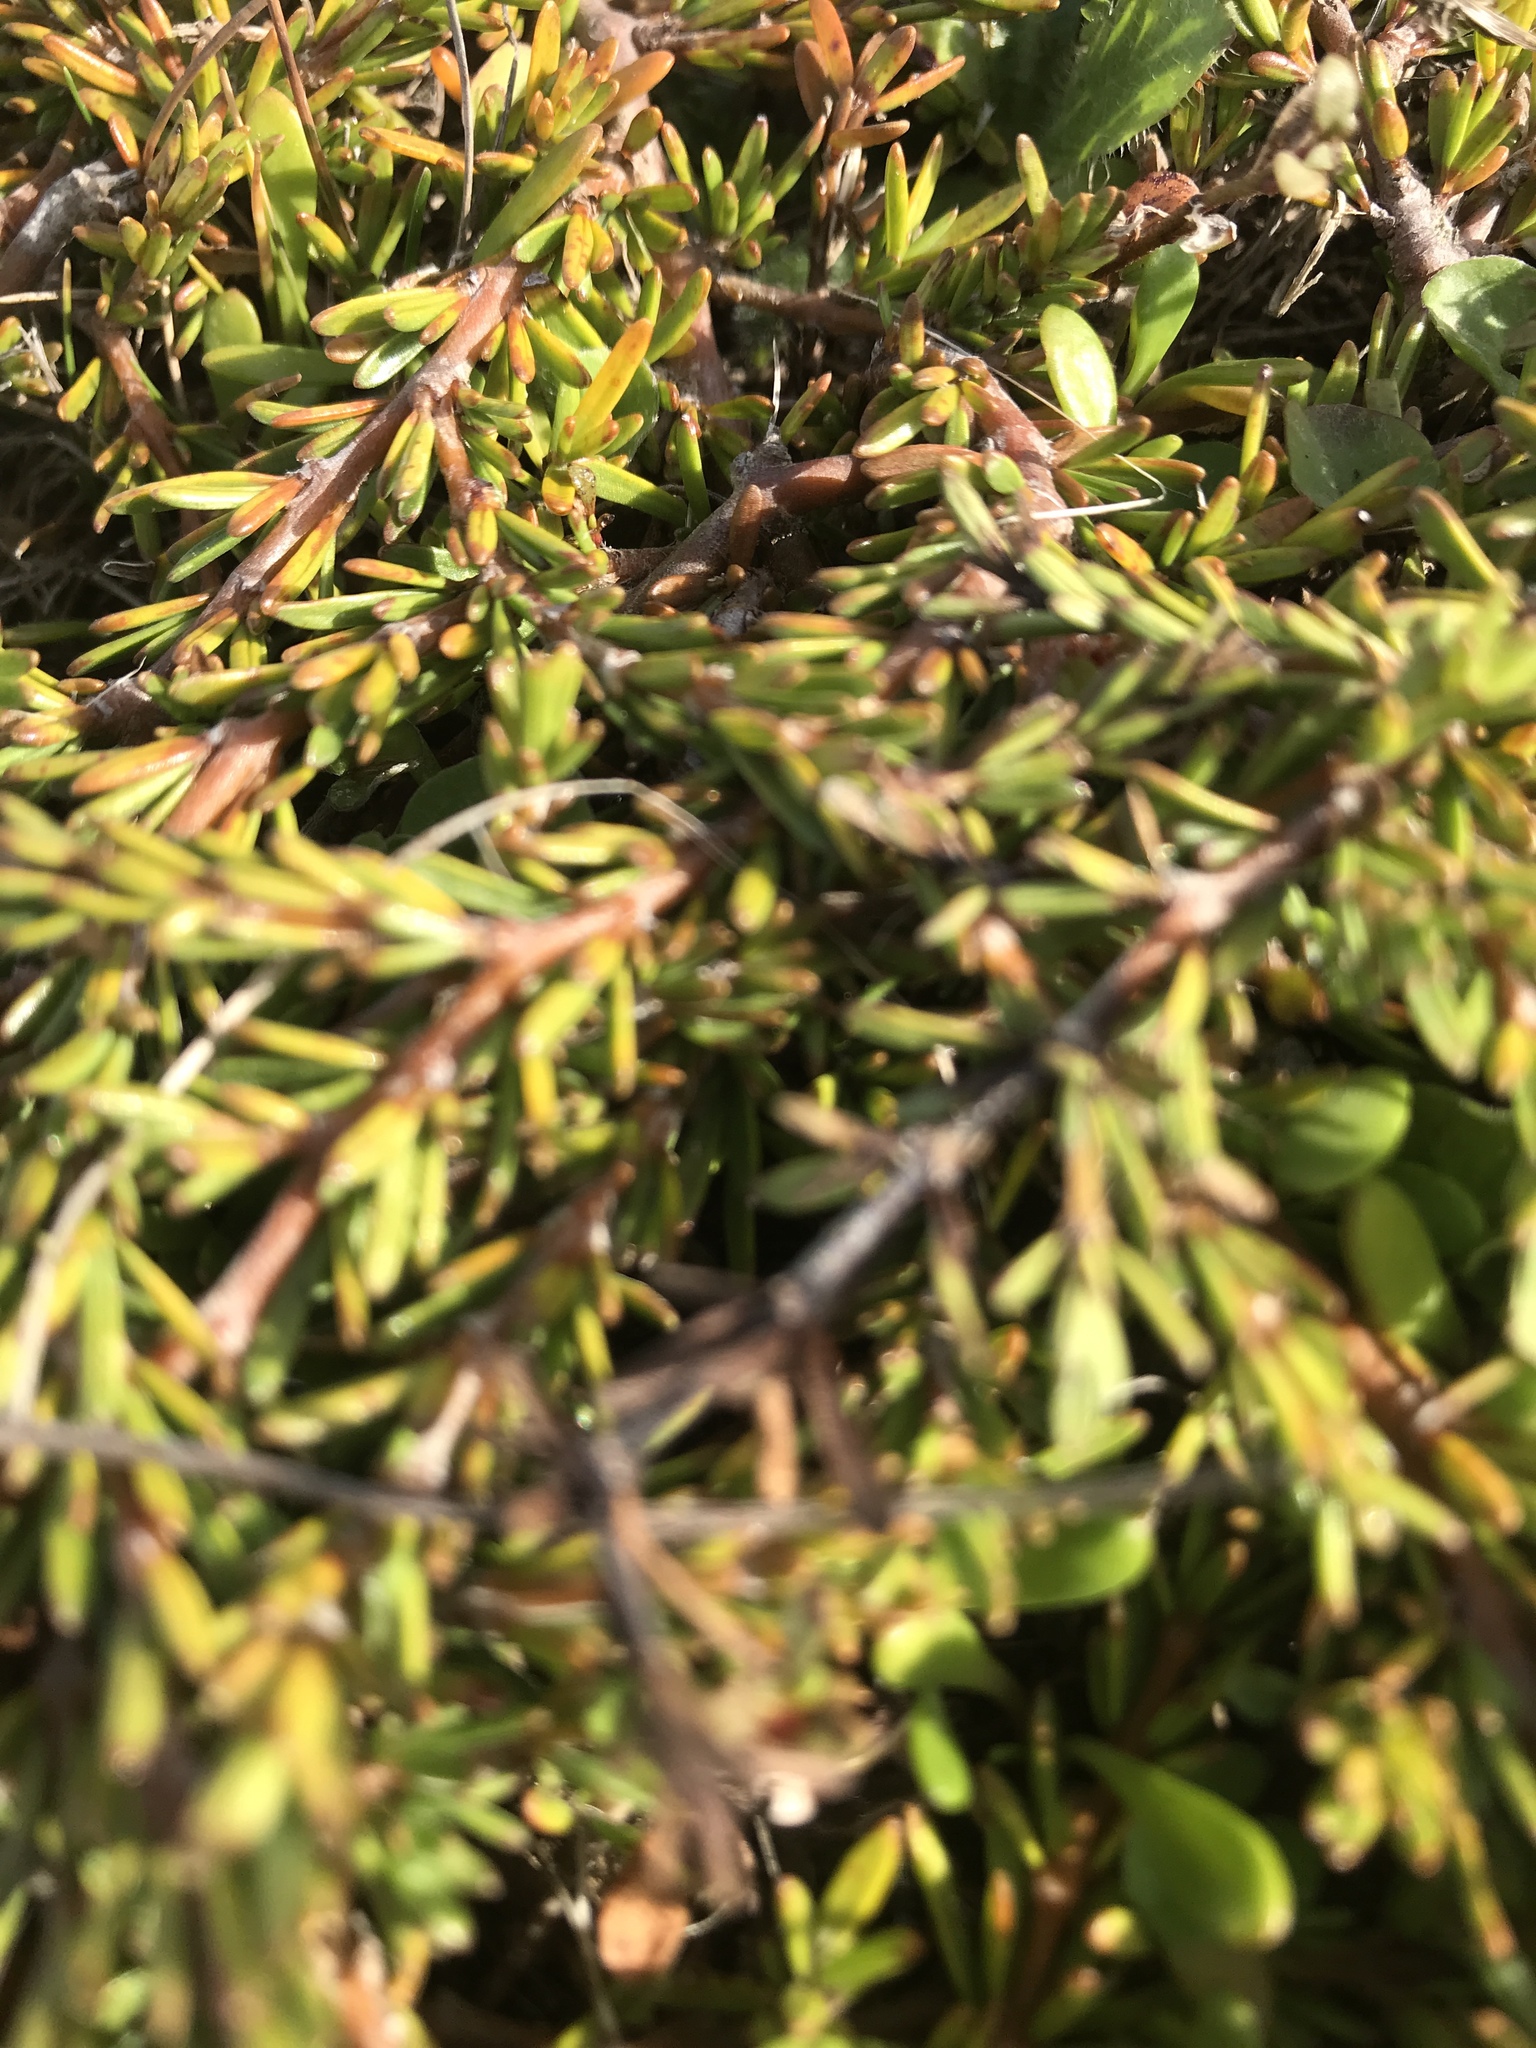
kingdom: Plantae
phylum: Tracheophyta
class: Magnoliopsida
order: Gentianales
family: Rubiaceae
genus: Coprosma
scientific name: Coprosma acerosa
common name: Sand coprosma
